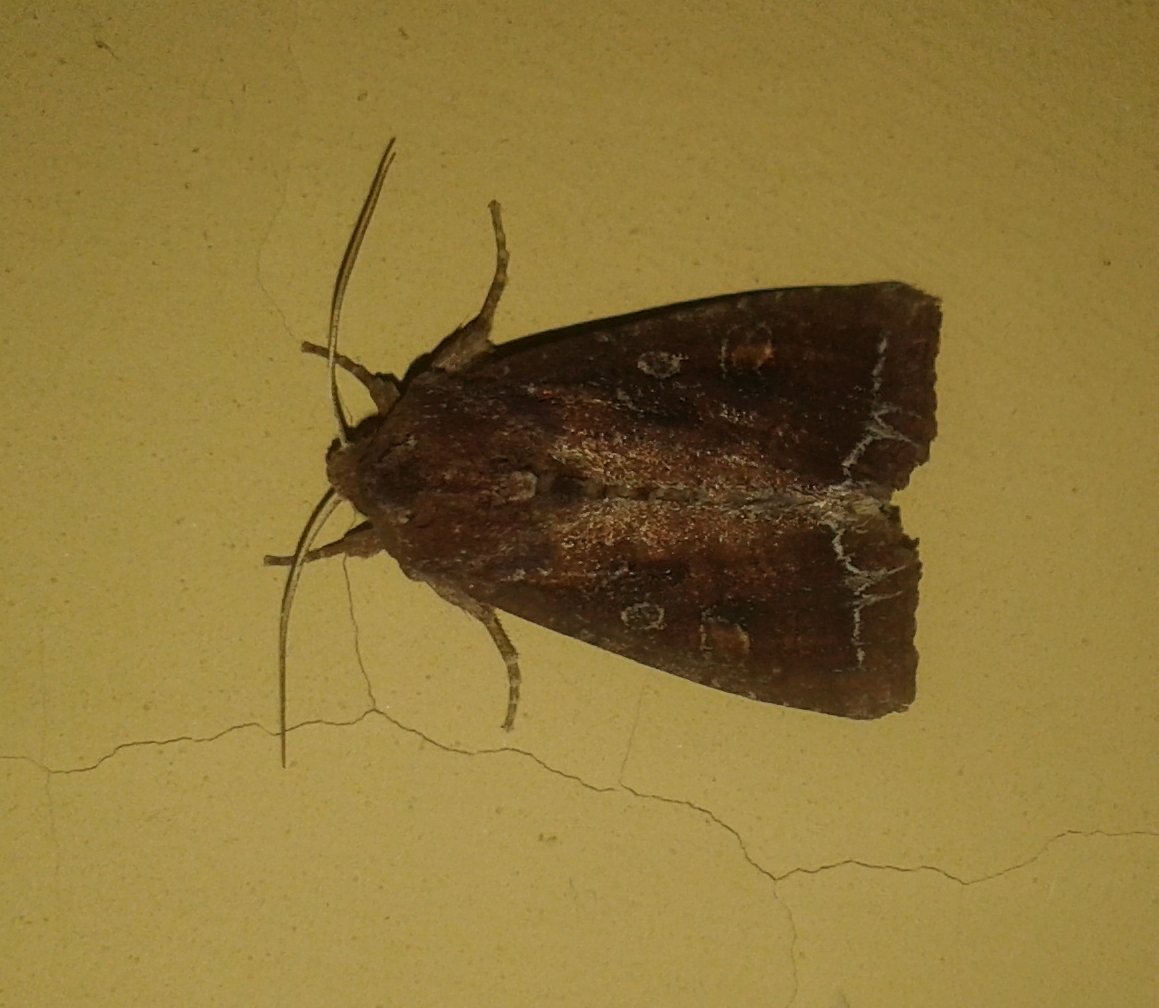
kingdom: Animalia
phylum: Arthropoda
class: Insecta
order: Lepidoptera
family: Noctuidae
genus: Lacanobia
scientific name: Lacanobia oleracea
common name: Bright-line brown-eye
